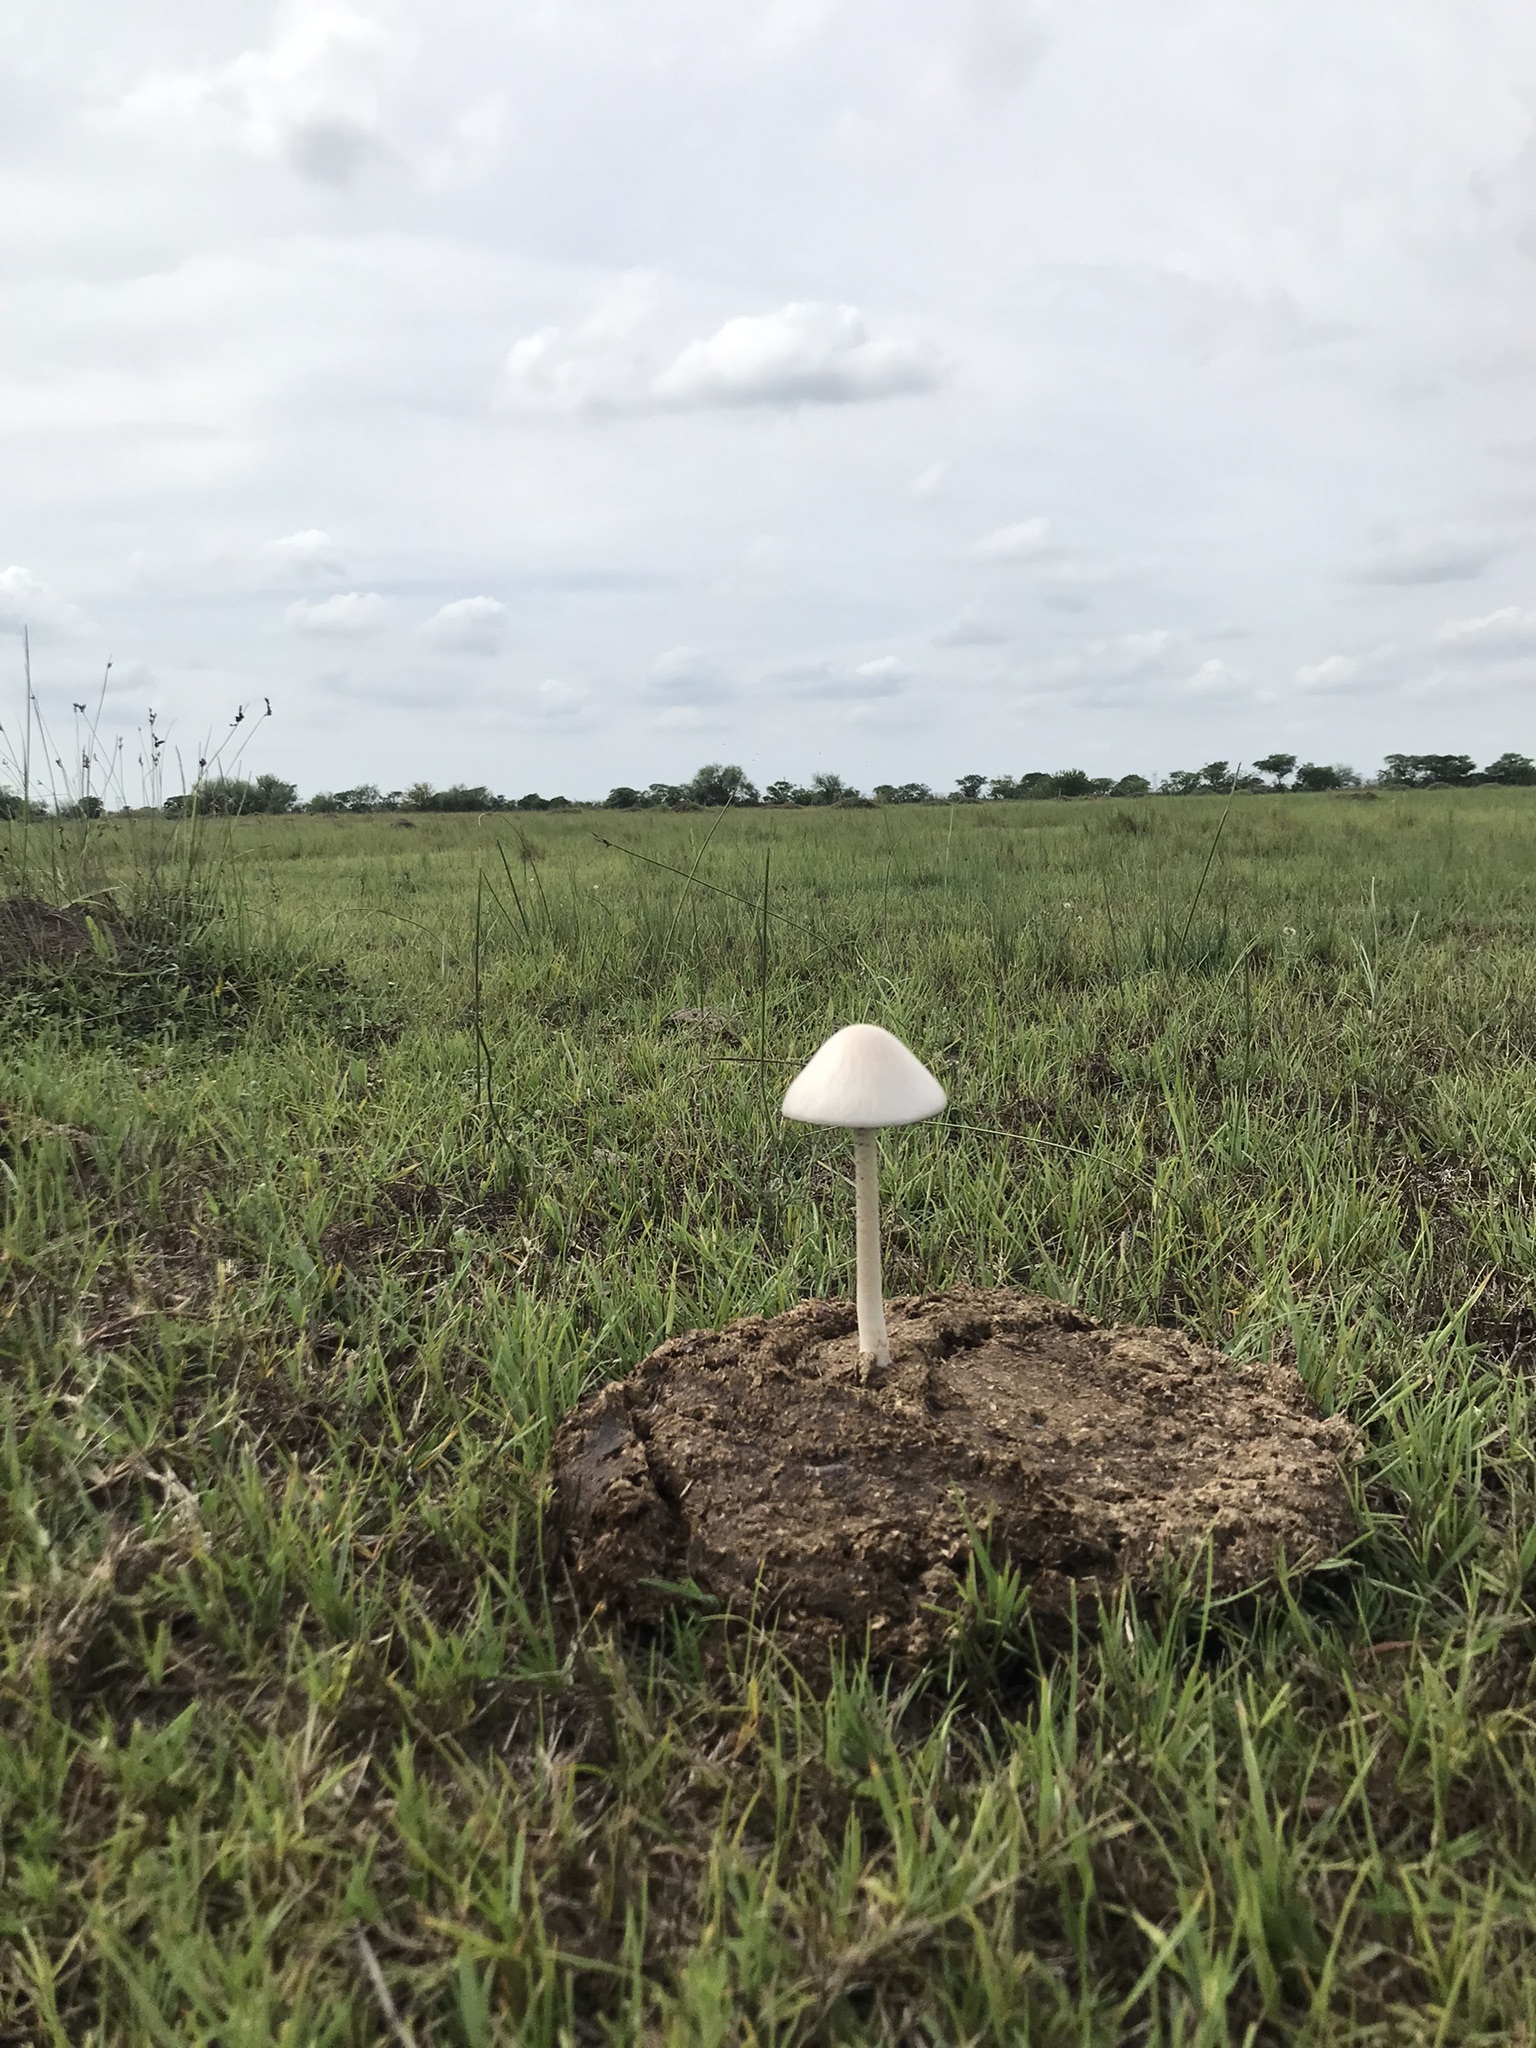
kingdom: Fungi
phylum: Basidiomycota
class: Agaricomycetes
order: Agaricales
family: Bolbitiaceae
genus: Panaeolus
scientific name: Panaeolus antillarum
